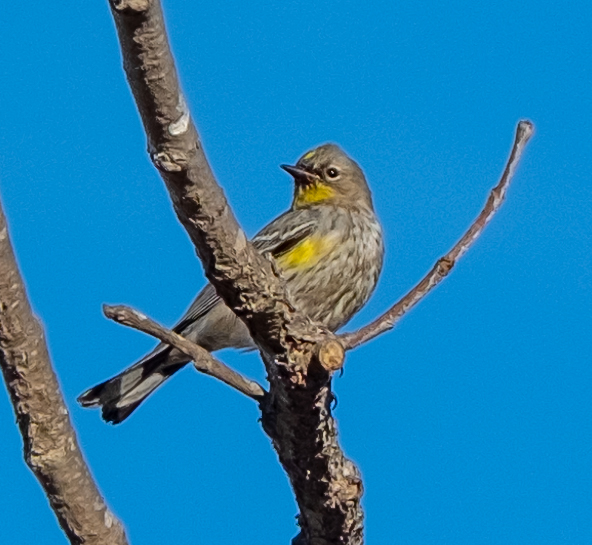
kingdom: Animalia
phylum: Chordata
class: Aves
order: Passeriformes
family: Parulidae
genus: Setophaga
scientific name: Setophaga coronata
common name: Myrtle warbler
